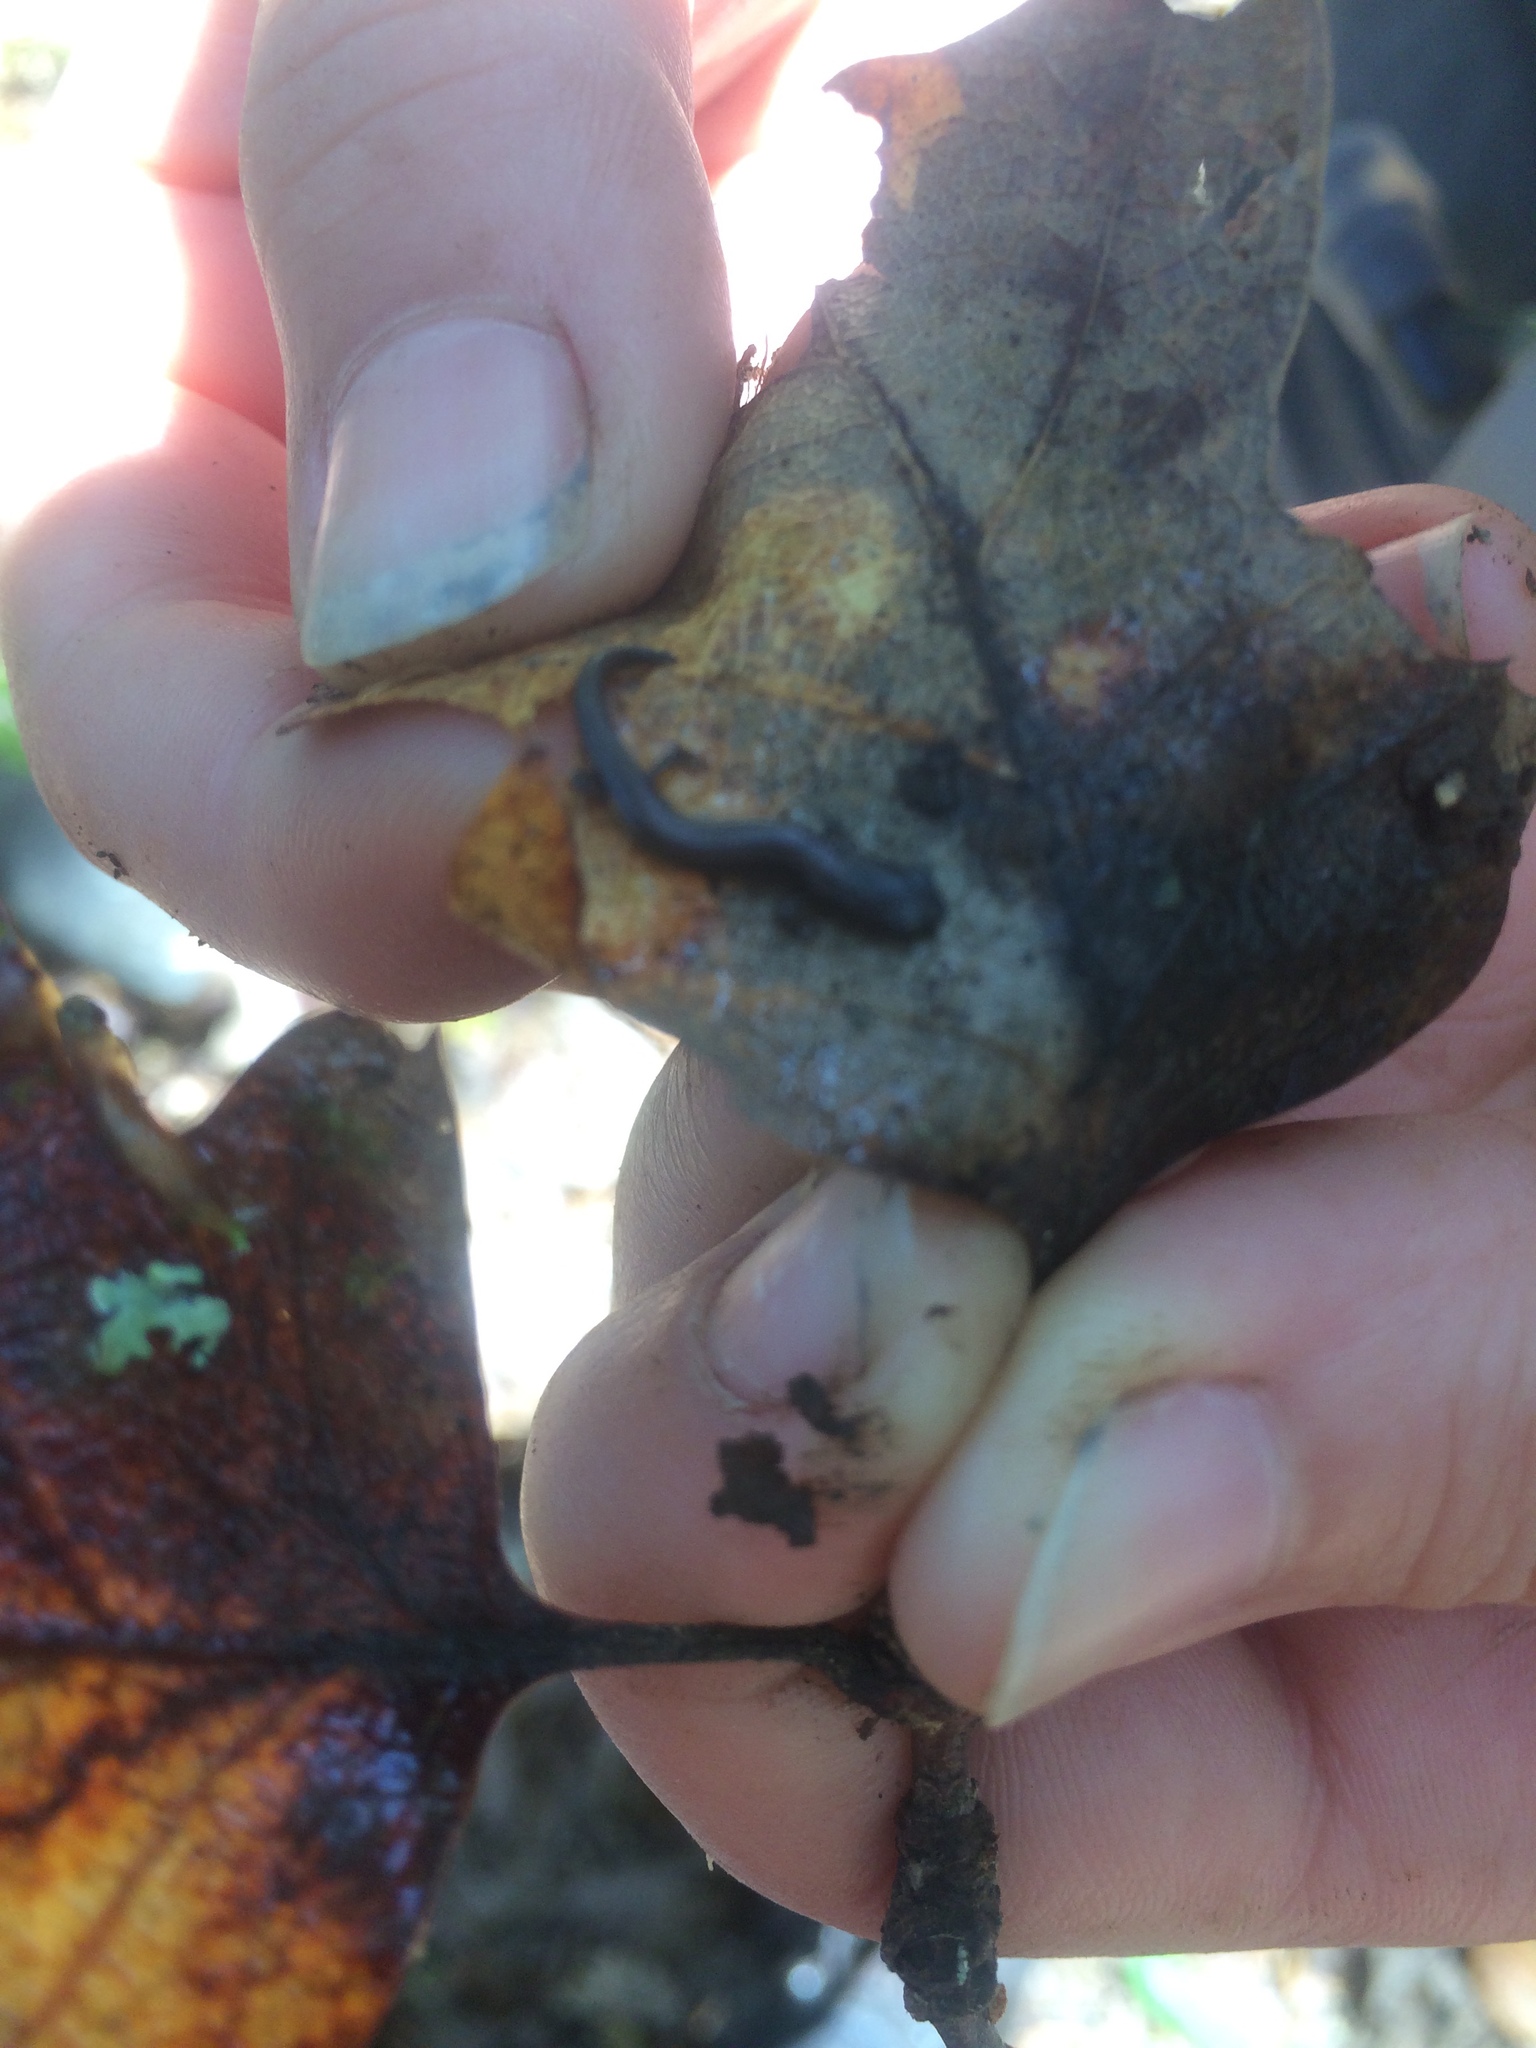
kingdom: Animalia
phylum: Chordata
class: Amphibia
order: Caudata
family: Plethodontidae
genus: Batrachoseps
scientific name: Batrachoseps attenuatus
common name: California slender salamander
